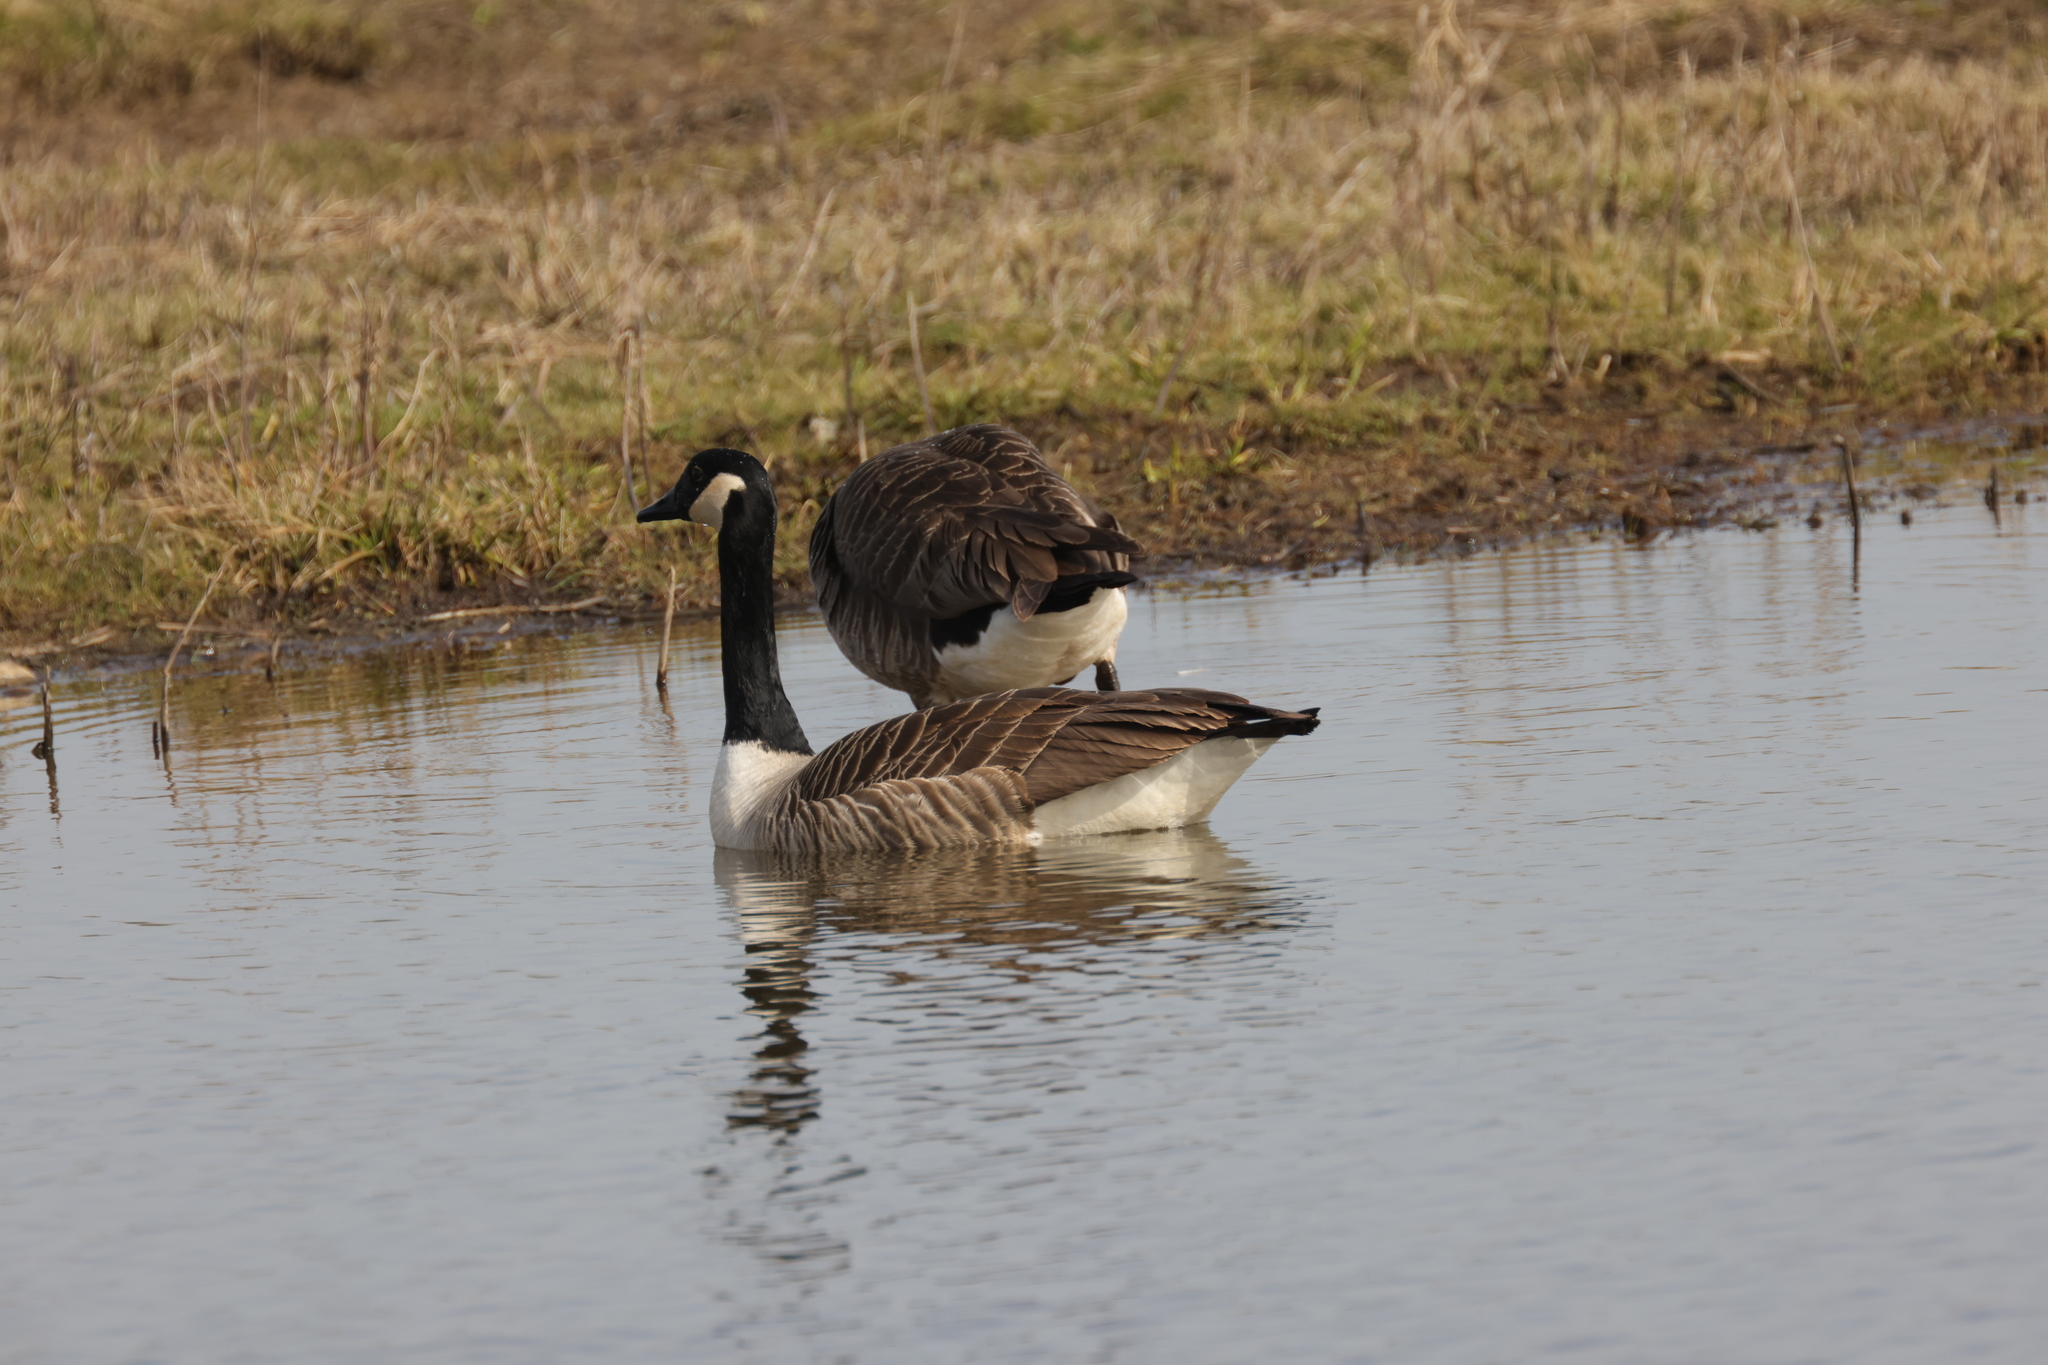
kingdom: Animalia
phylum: Chordata
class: Aves
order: Anseriformes
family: Anatidae
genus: Branta
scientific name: Branta canadensis
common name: Canada goose
